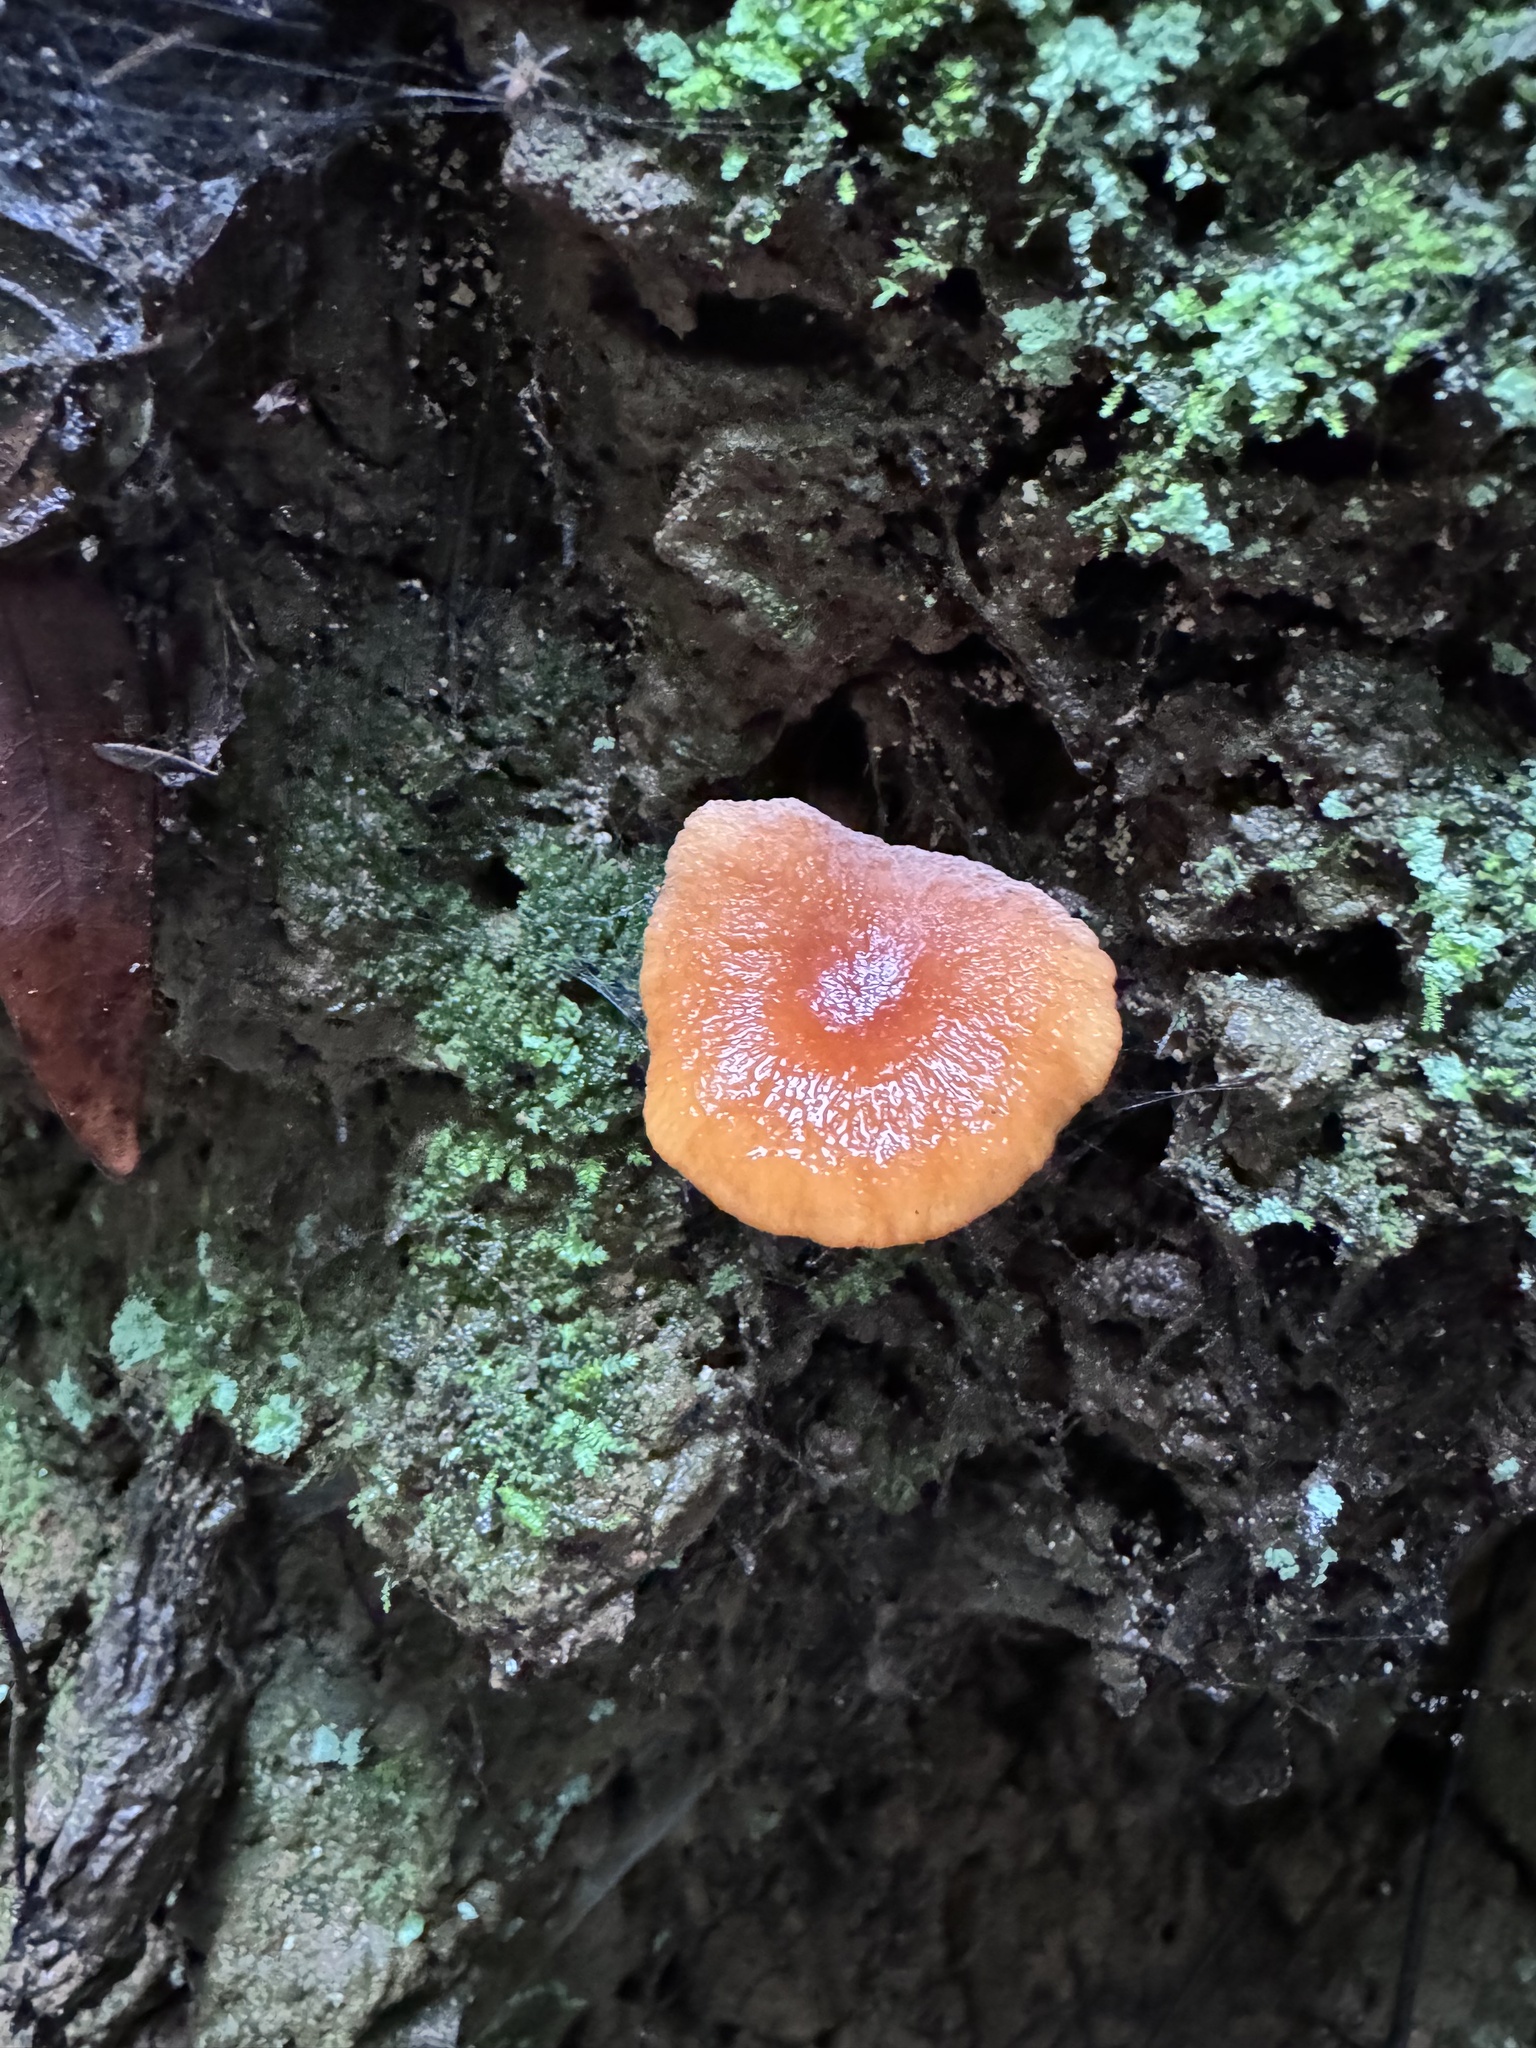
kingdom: Fungi
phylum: Basidiomycota
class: Agaricomycetes
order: Russulales
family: Russulaceae
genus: Lactarius
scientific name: Lactarius rubidus
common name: Candy cap
